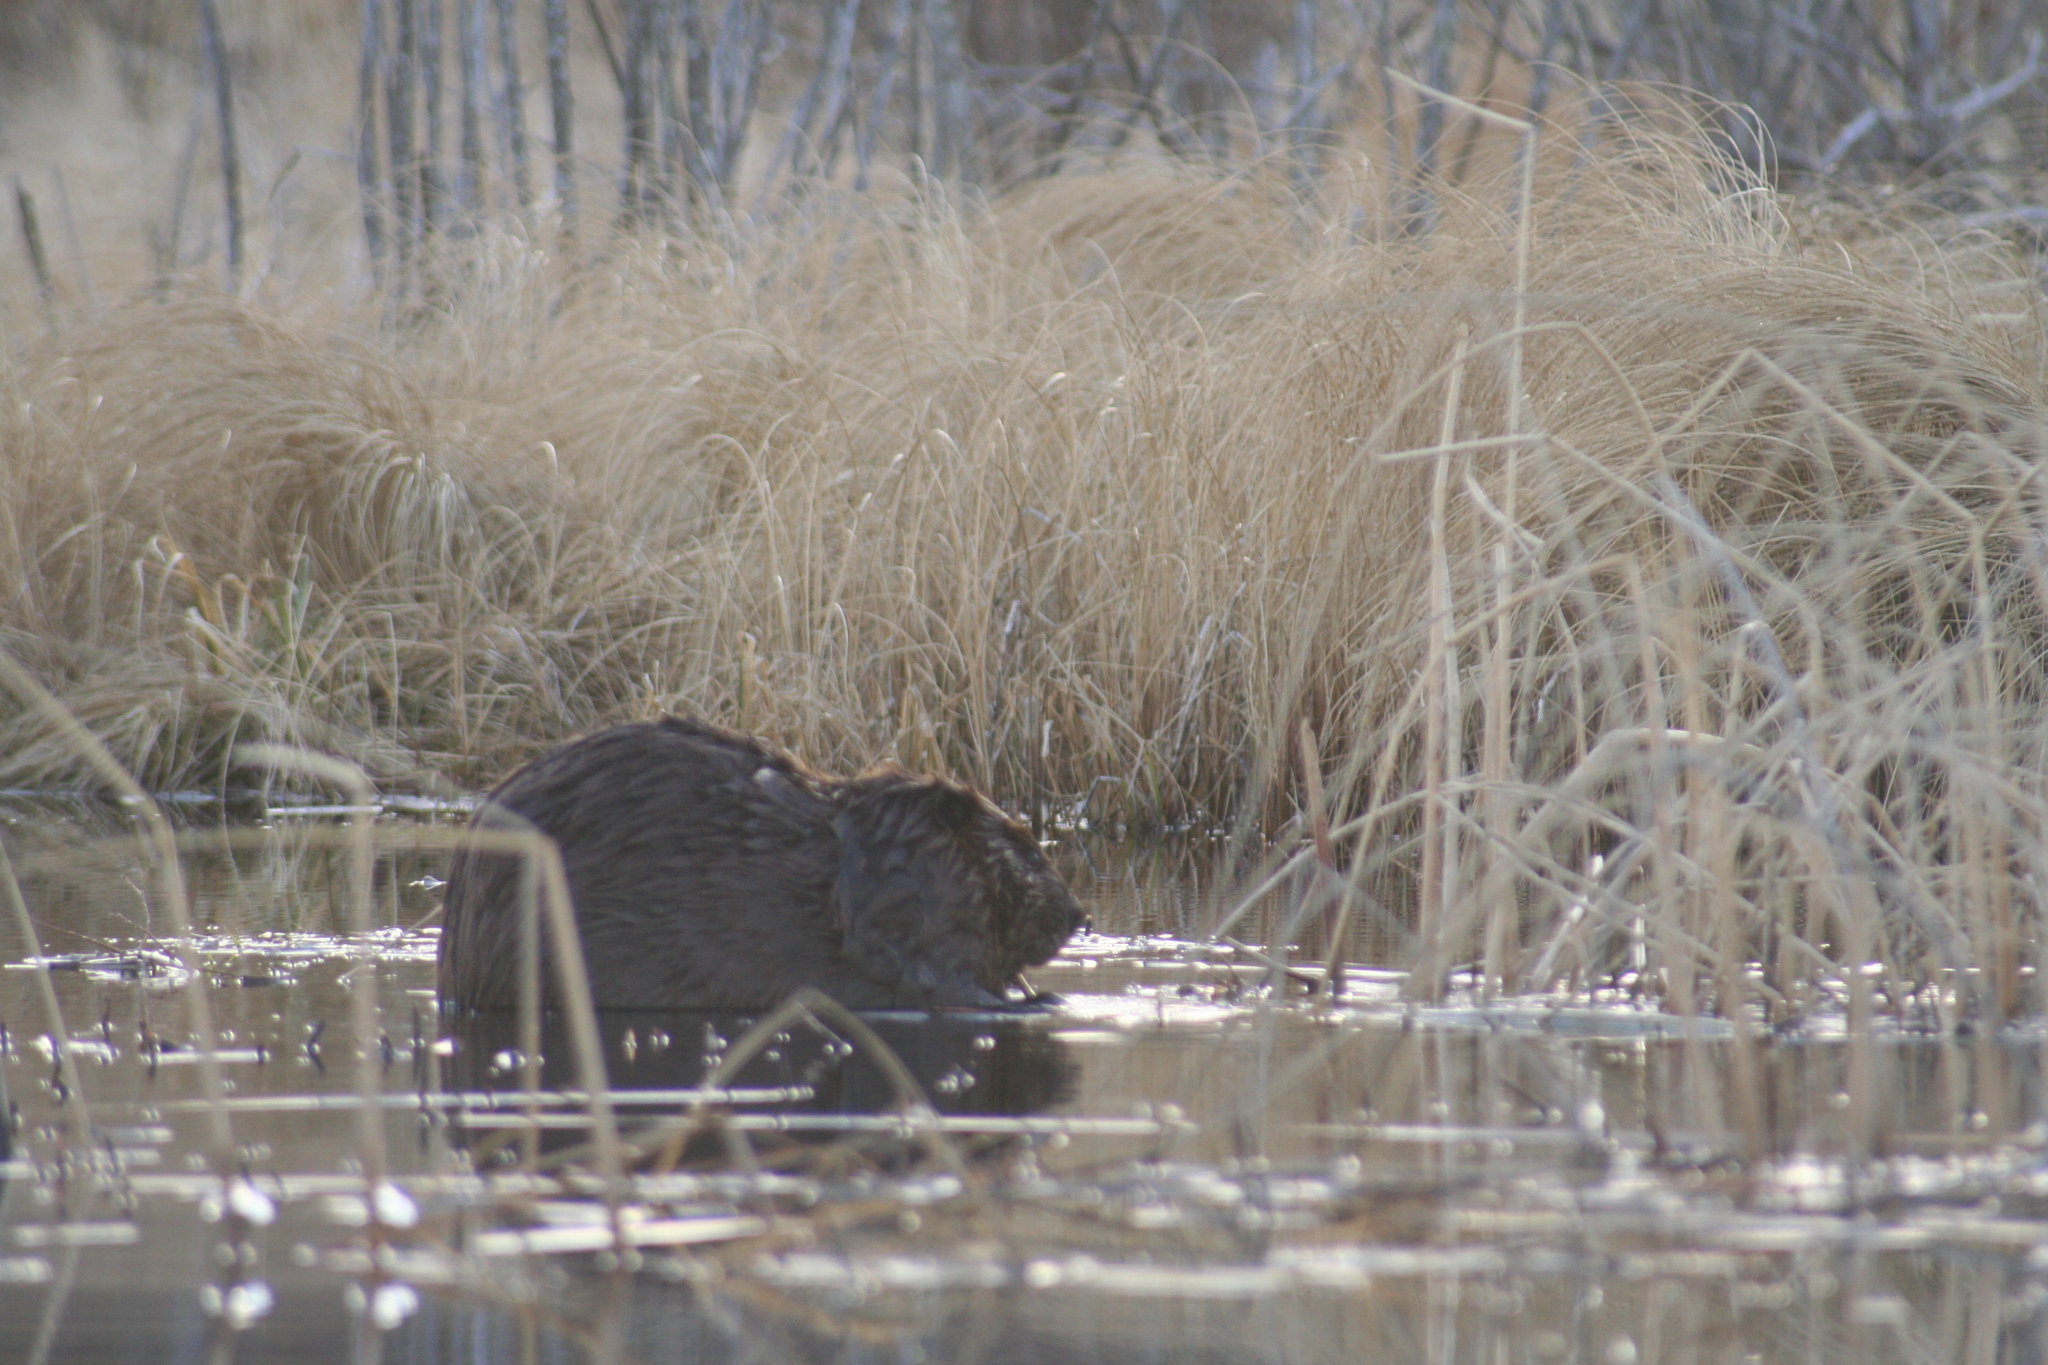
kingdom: Animalia
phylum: Chordata
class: Mammalia
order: Rodentia
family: Castoridae
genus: Castor
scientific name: Castor canadensis
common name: American beaver
